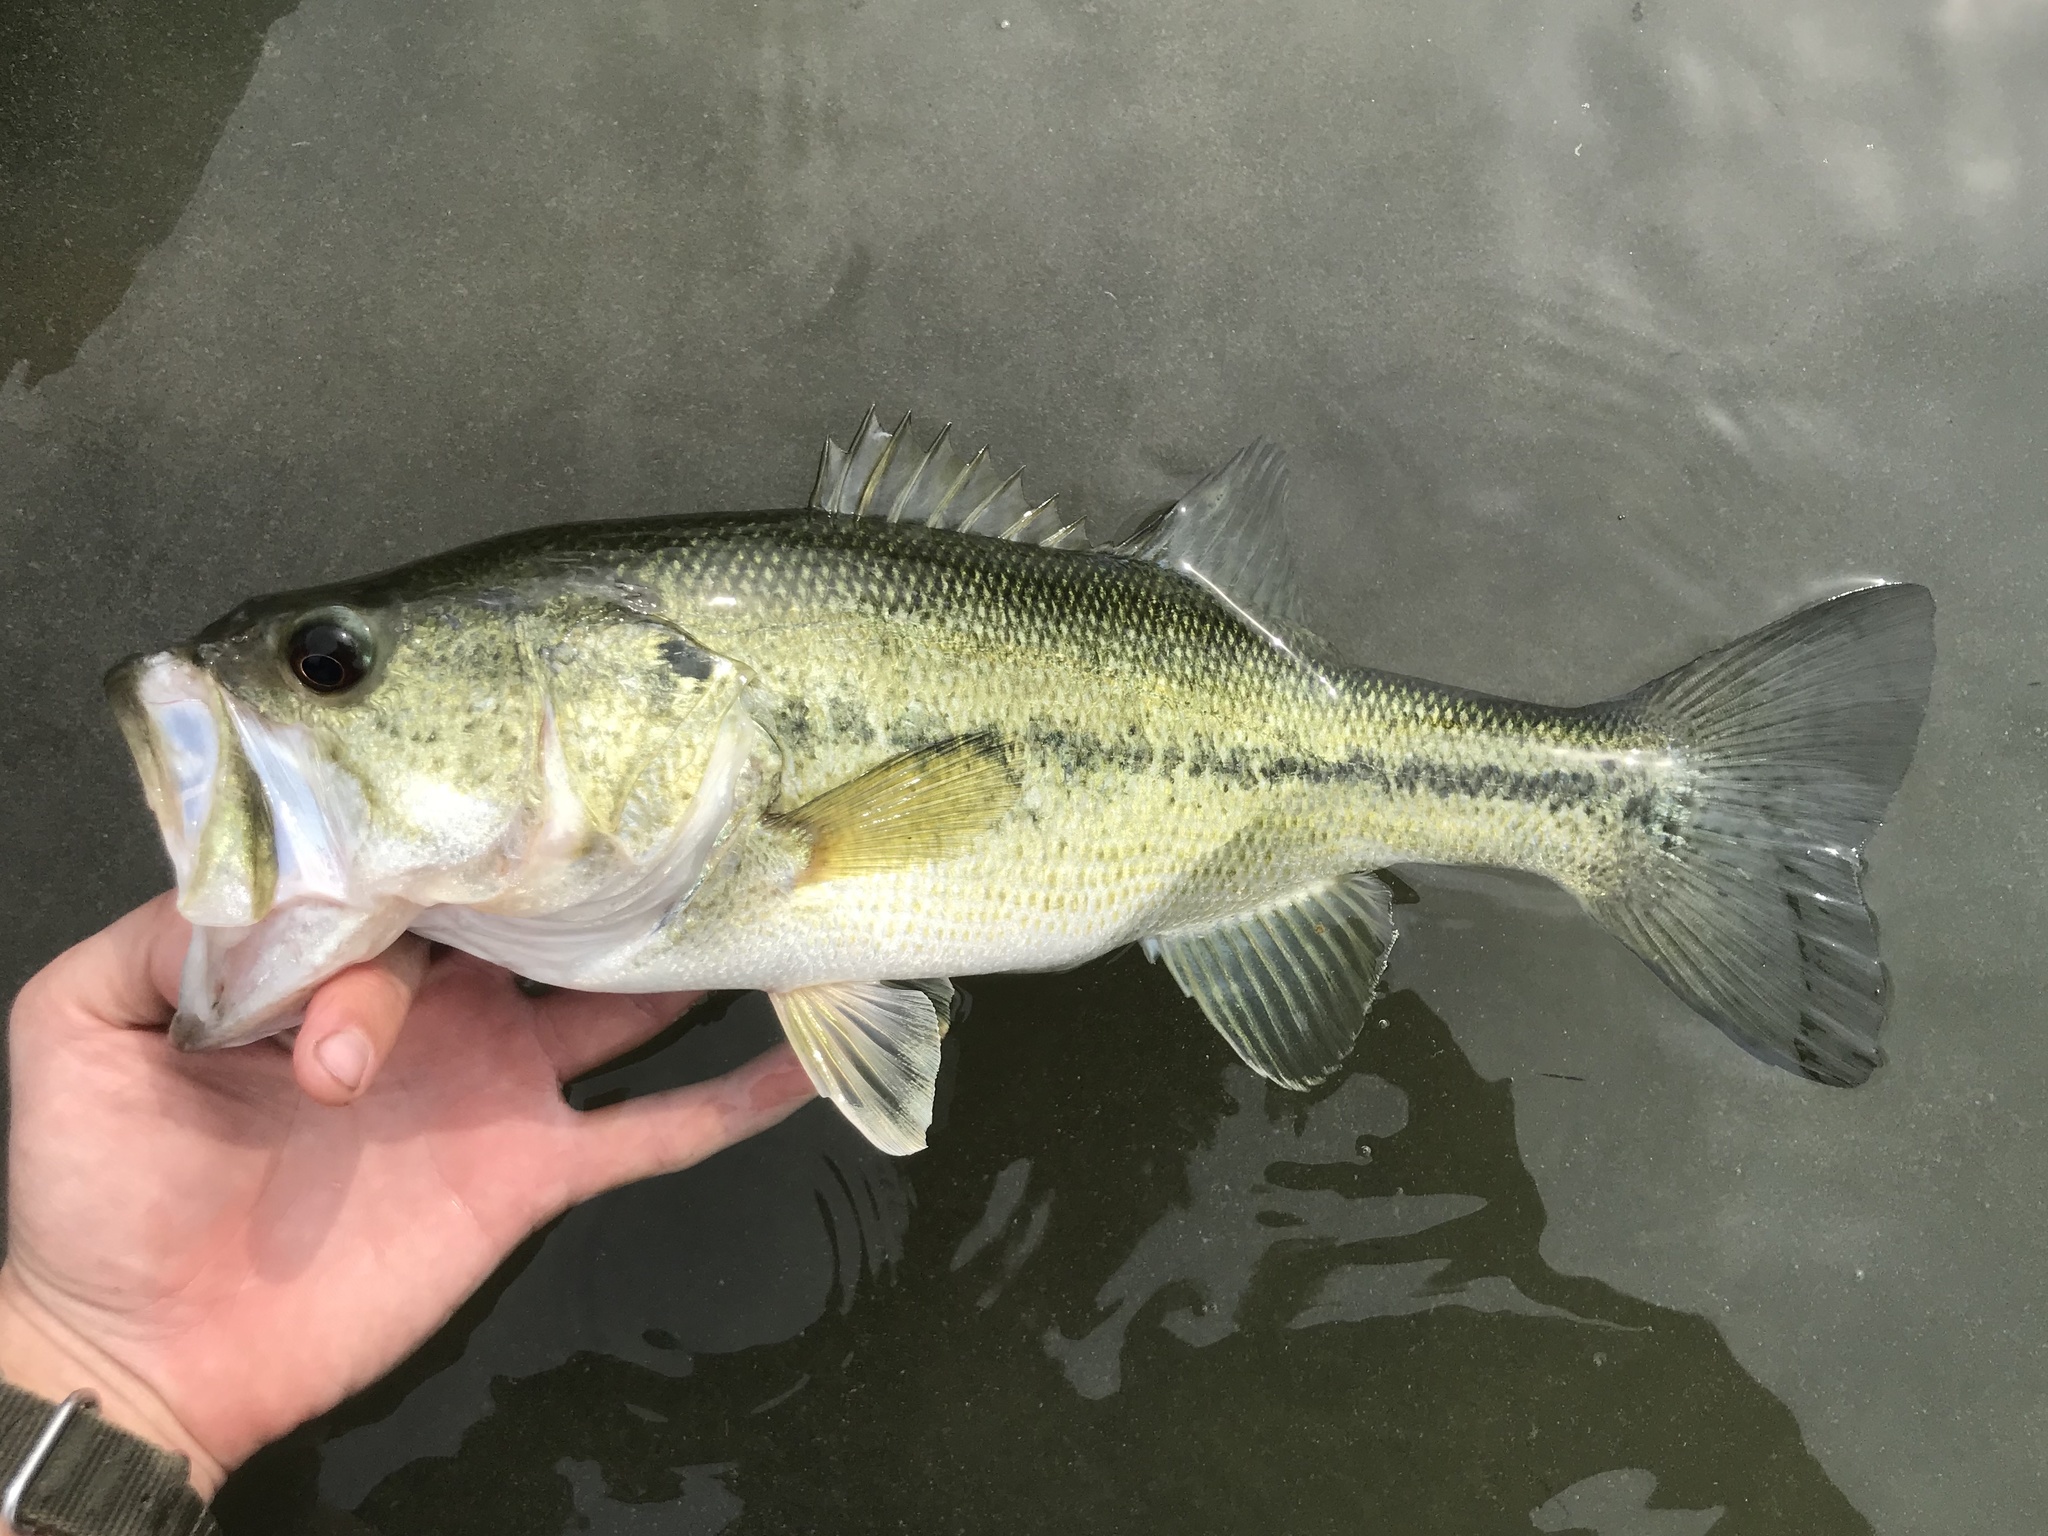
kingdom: Animalia
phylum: Chordata
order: Perciformes
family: Centrarchidae
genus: Micropterus
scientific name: Micropterus
